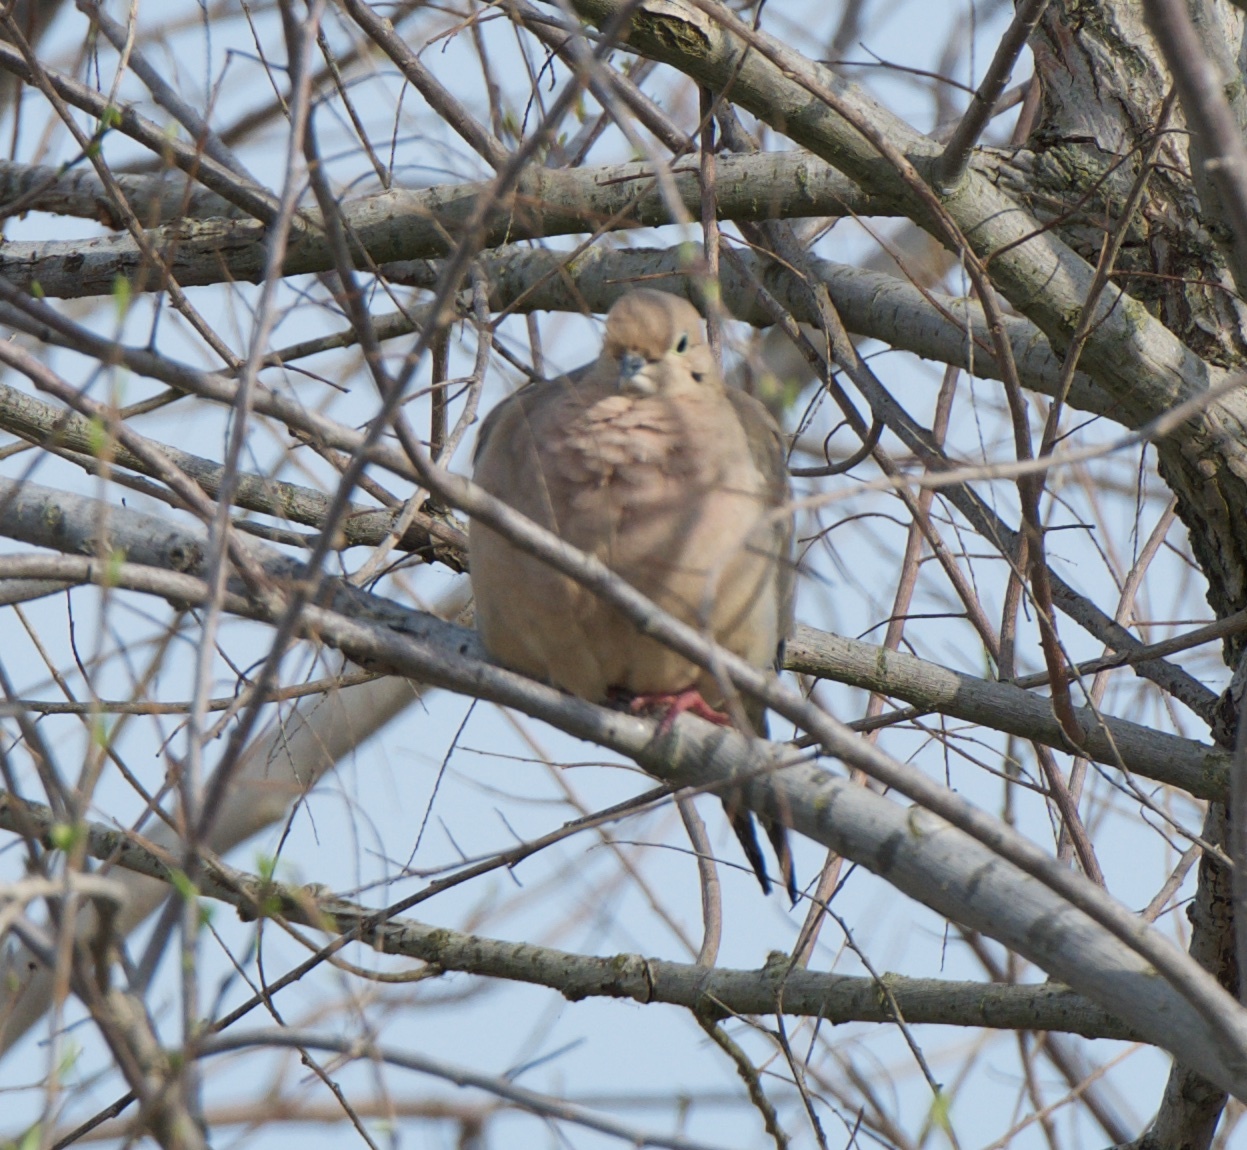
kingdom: Animalia
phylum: Chordata
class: Aves
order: Columbiformes
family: Columbidae
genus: Zenaida
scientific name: Zenaida macroura
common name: Mourning dove
